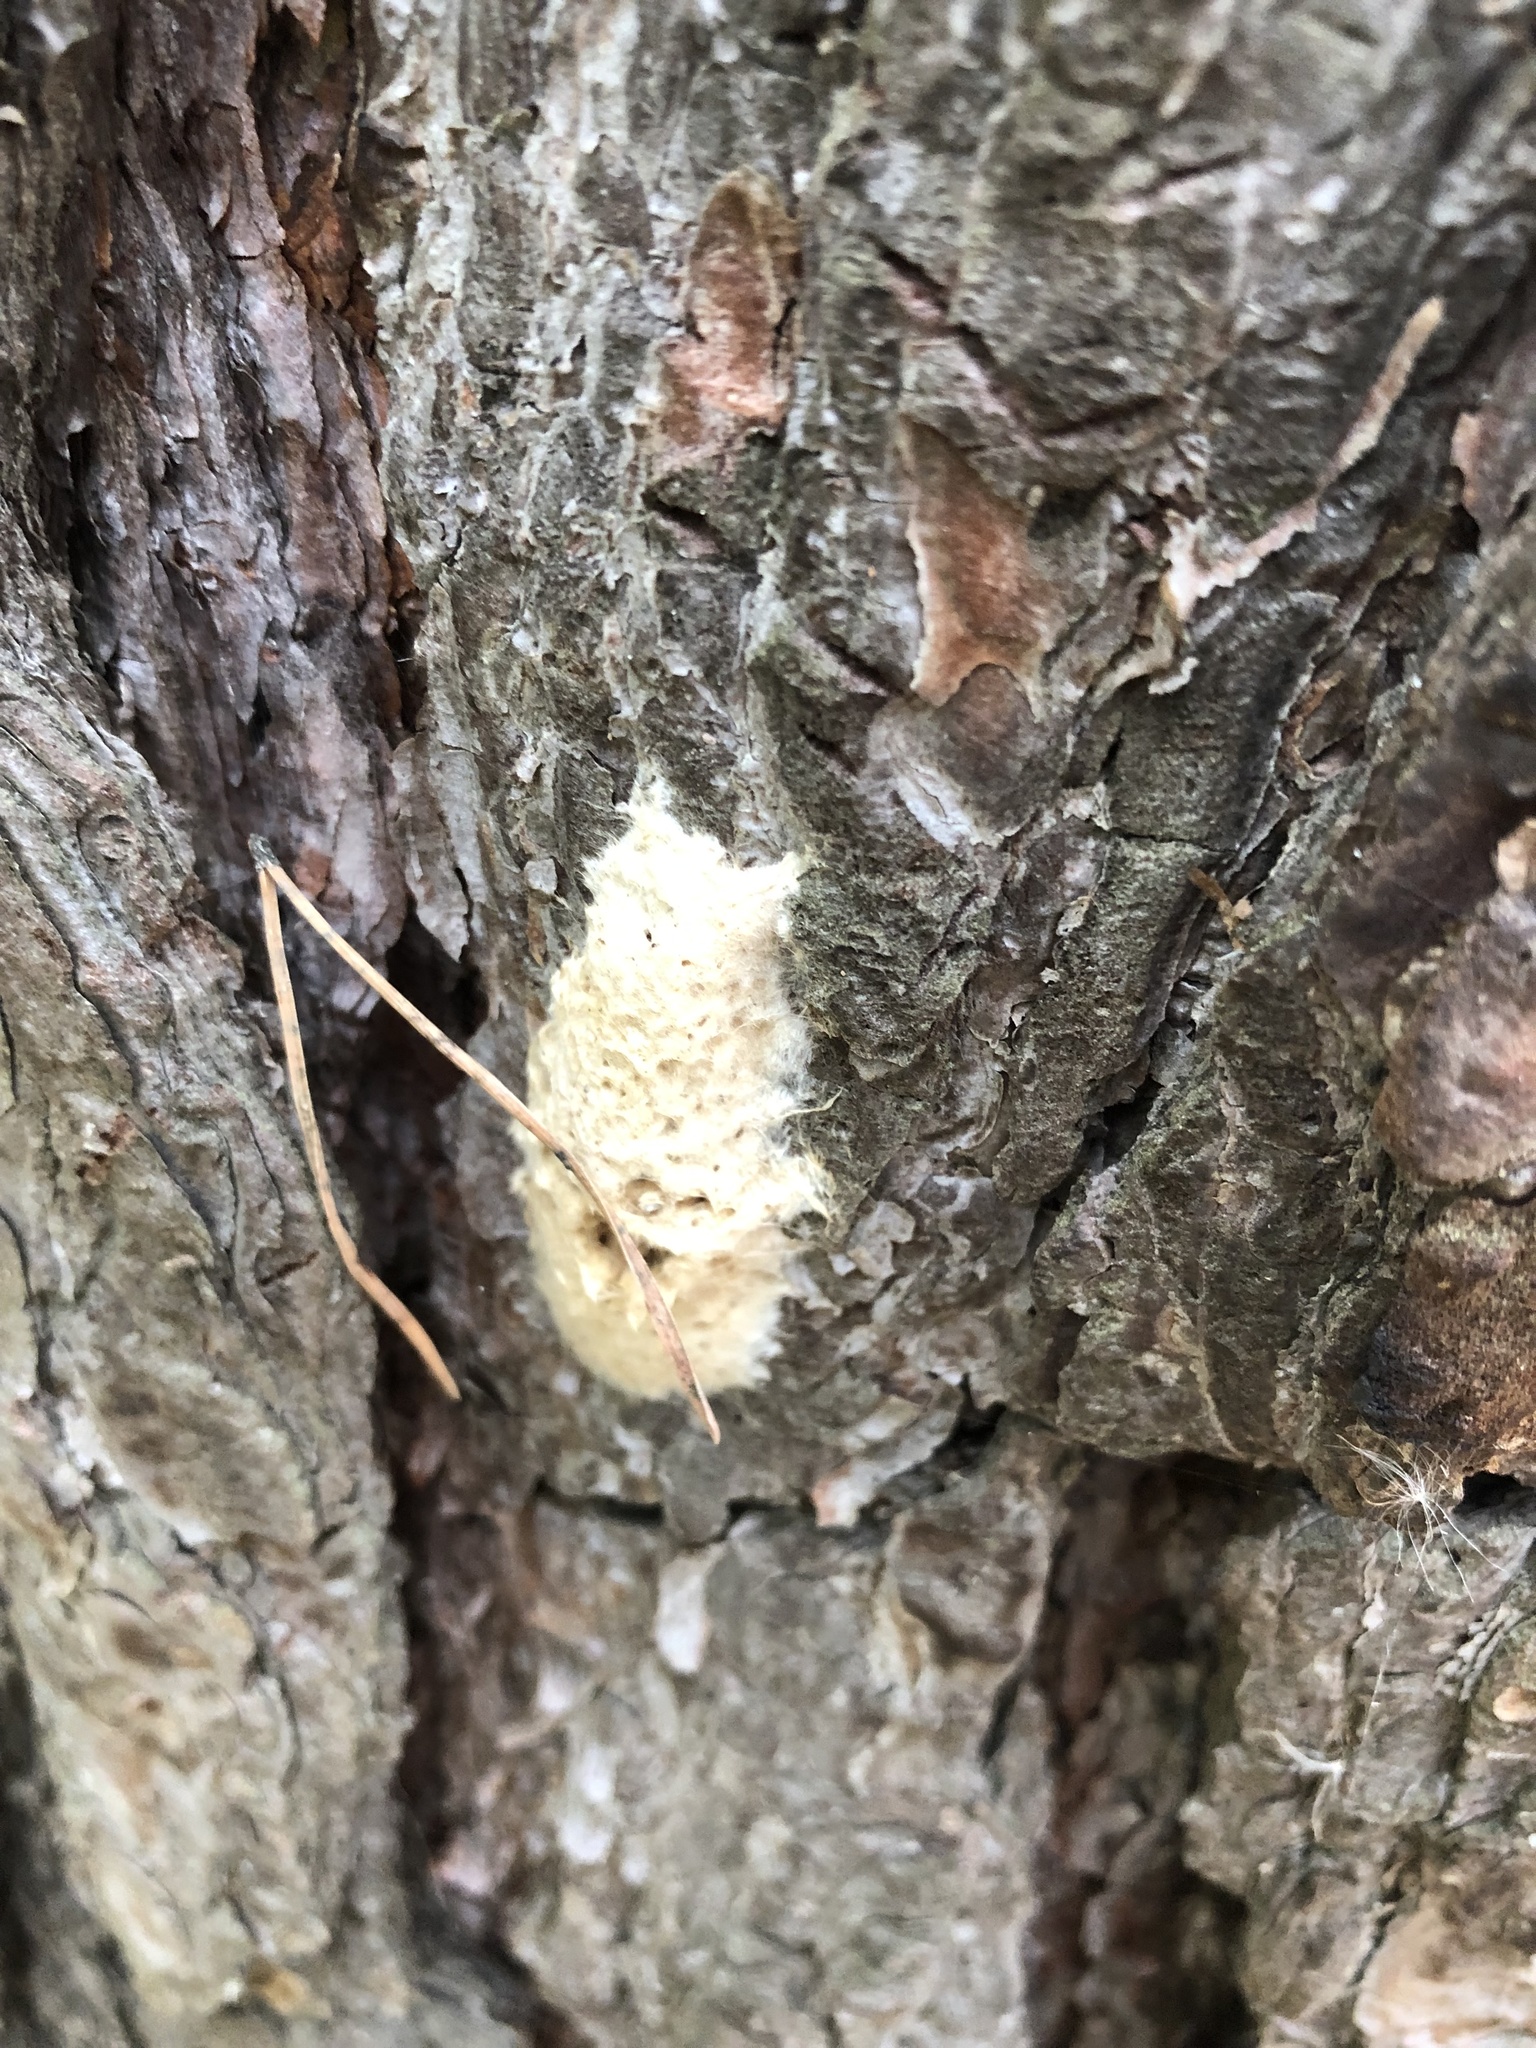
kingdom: Animalia
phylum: Arthropoda
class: Insecta
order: Lepidoptera
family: Erebidae
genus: Lymantria
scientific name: Lymantria dispar
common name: Gypsy moth
